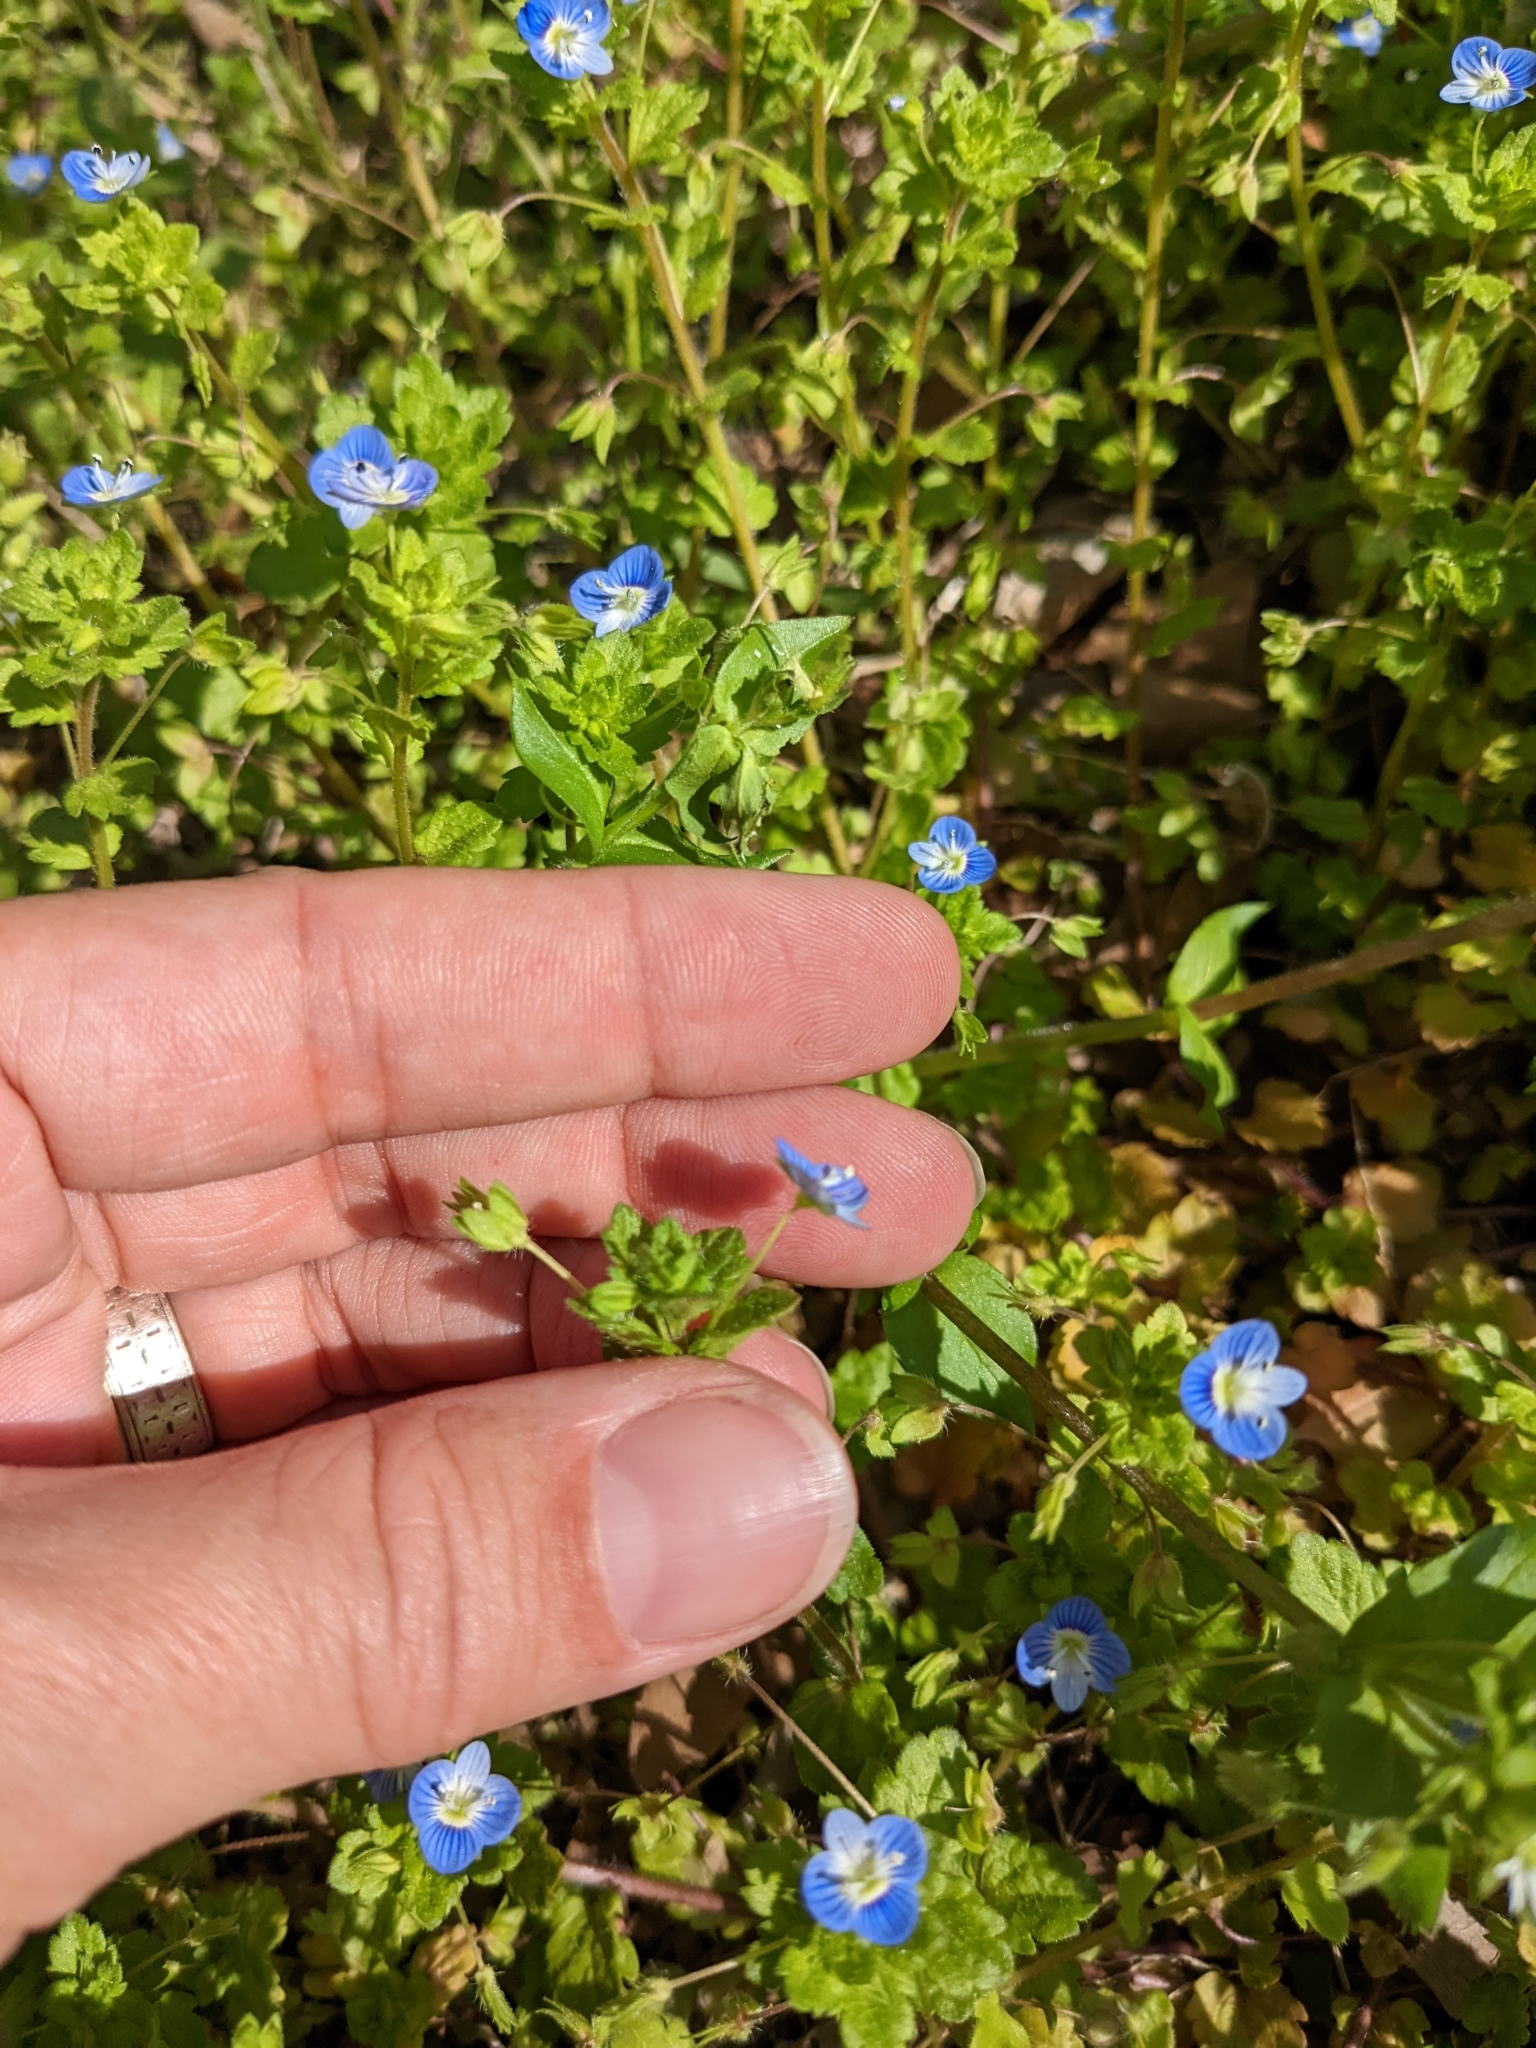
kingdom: Plantae
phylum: Tracheophyta
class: Magnoliopsida
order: Lamiales
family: Plantaginaceae
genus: Veronica
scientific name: Veronica persica
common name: Common field-speedwell
